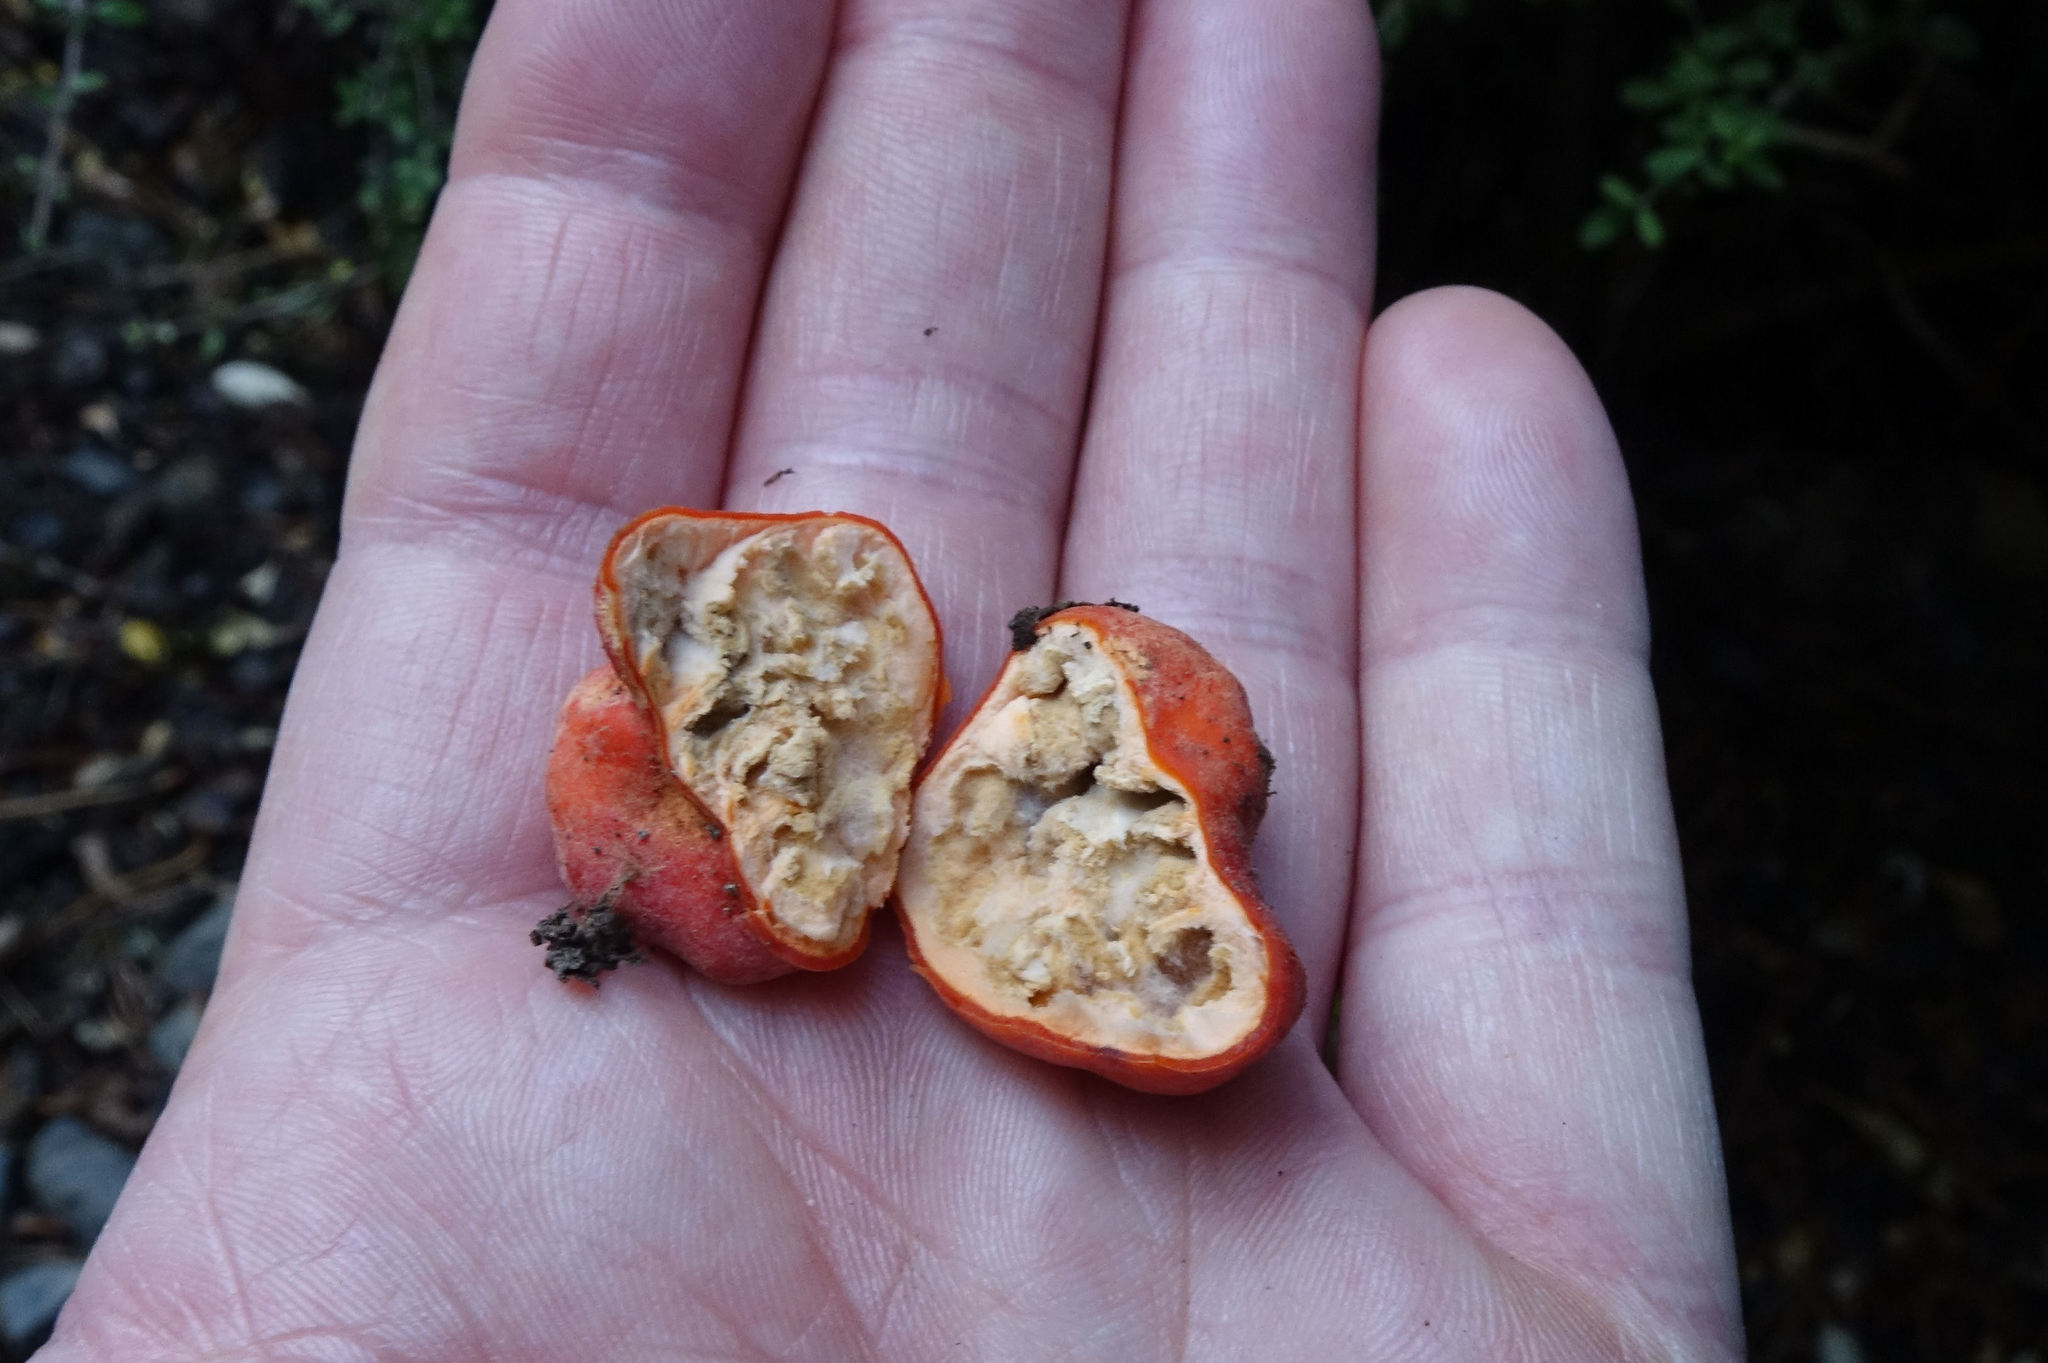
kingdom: Fungi
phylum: Ascomycota
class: Pezizomycetes
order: Pezizales
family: Pyronemataceae
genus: Paurocotylis
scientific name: Paurocotylis pila
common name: Scarlet berry truffle
